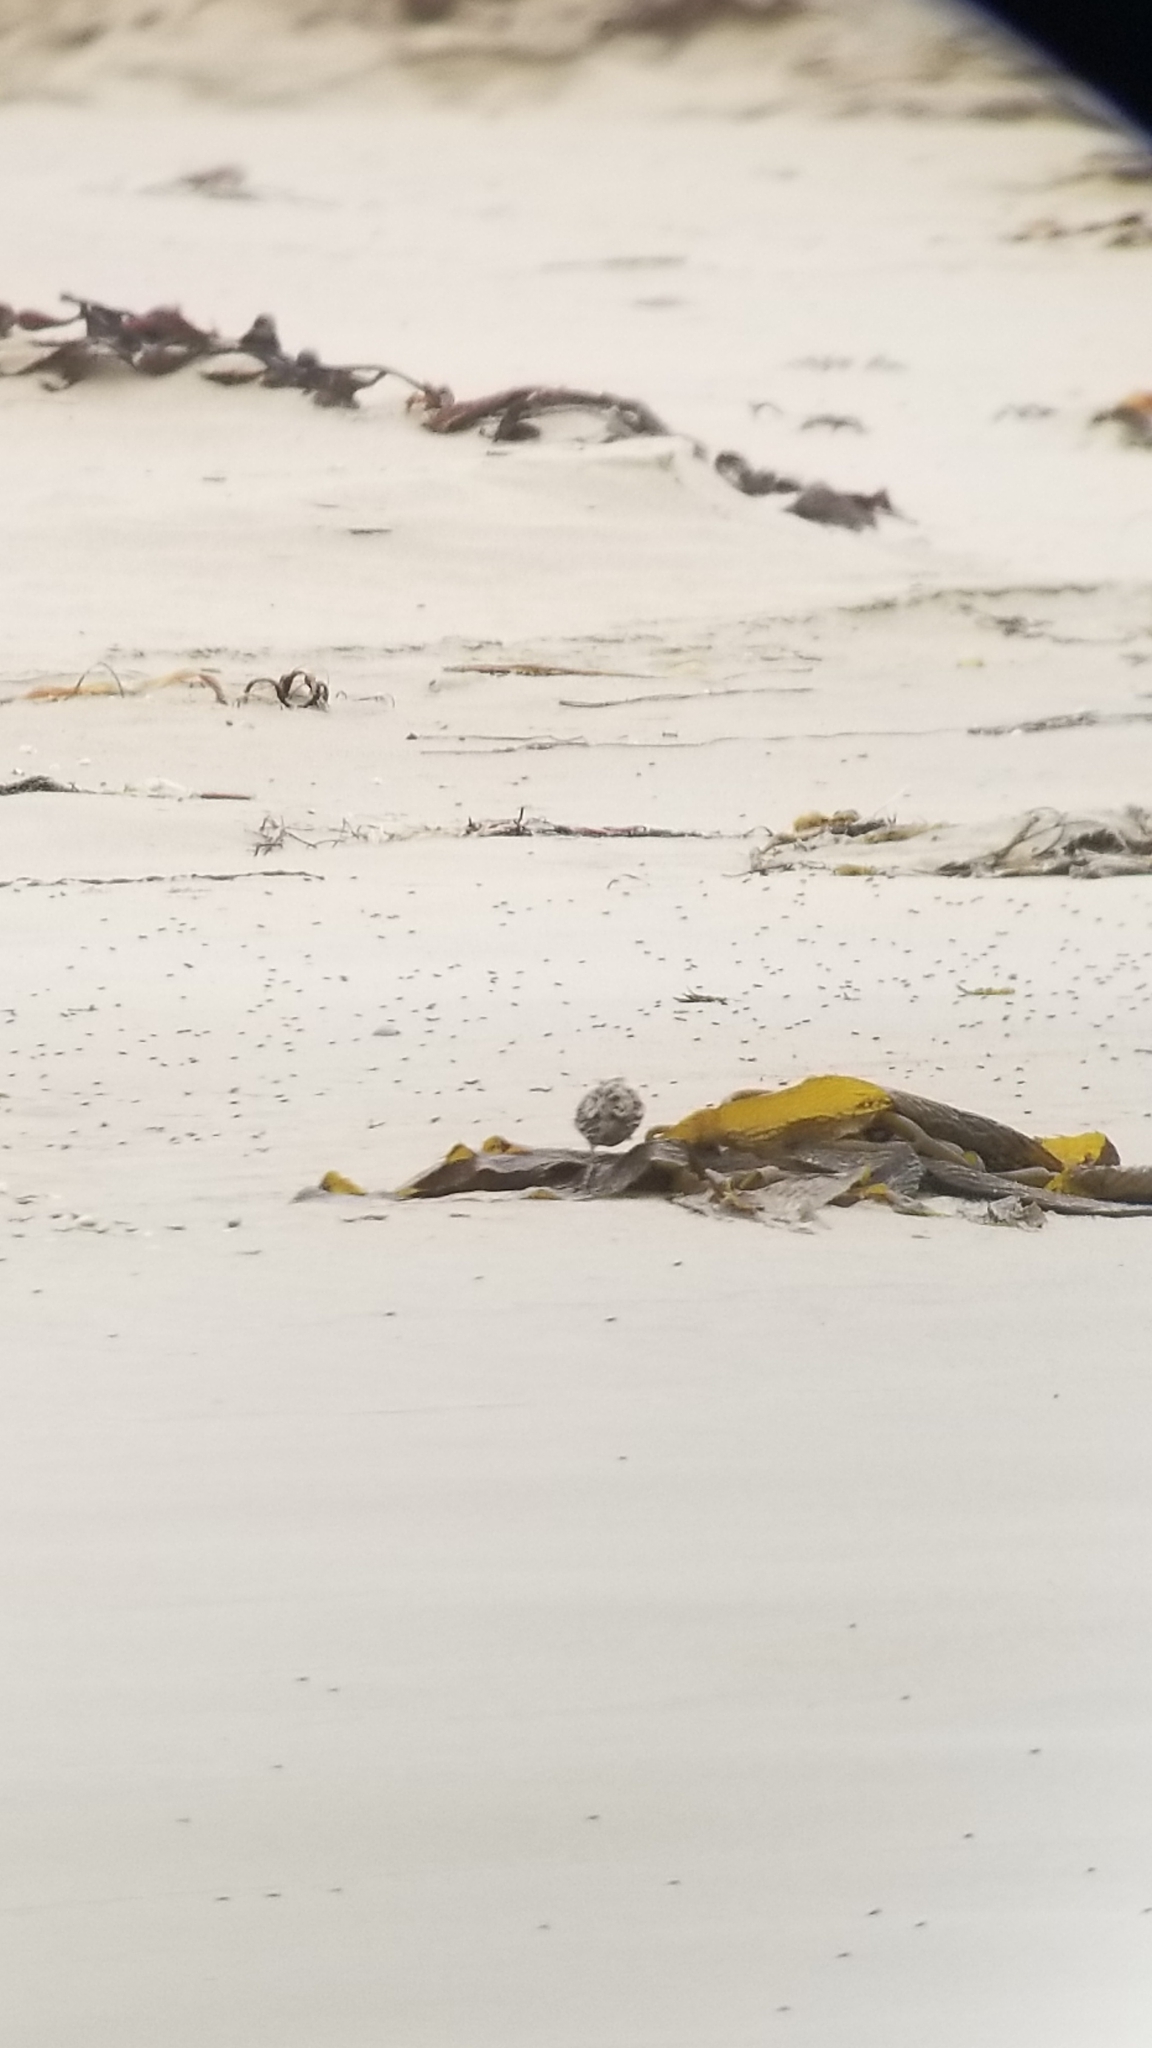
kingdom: Animalia
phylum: Chordata
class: Aves
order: Passeriformes
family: Passerellidae
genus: Passerculus
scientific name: Passerculus sandwichensis
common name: Savannah sparrow
